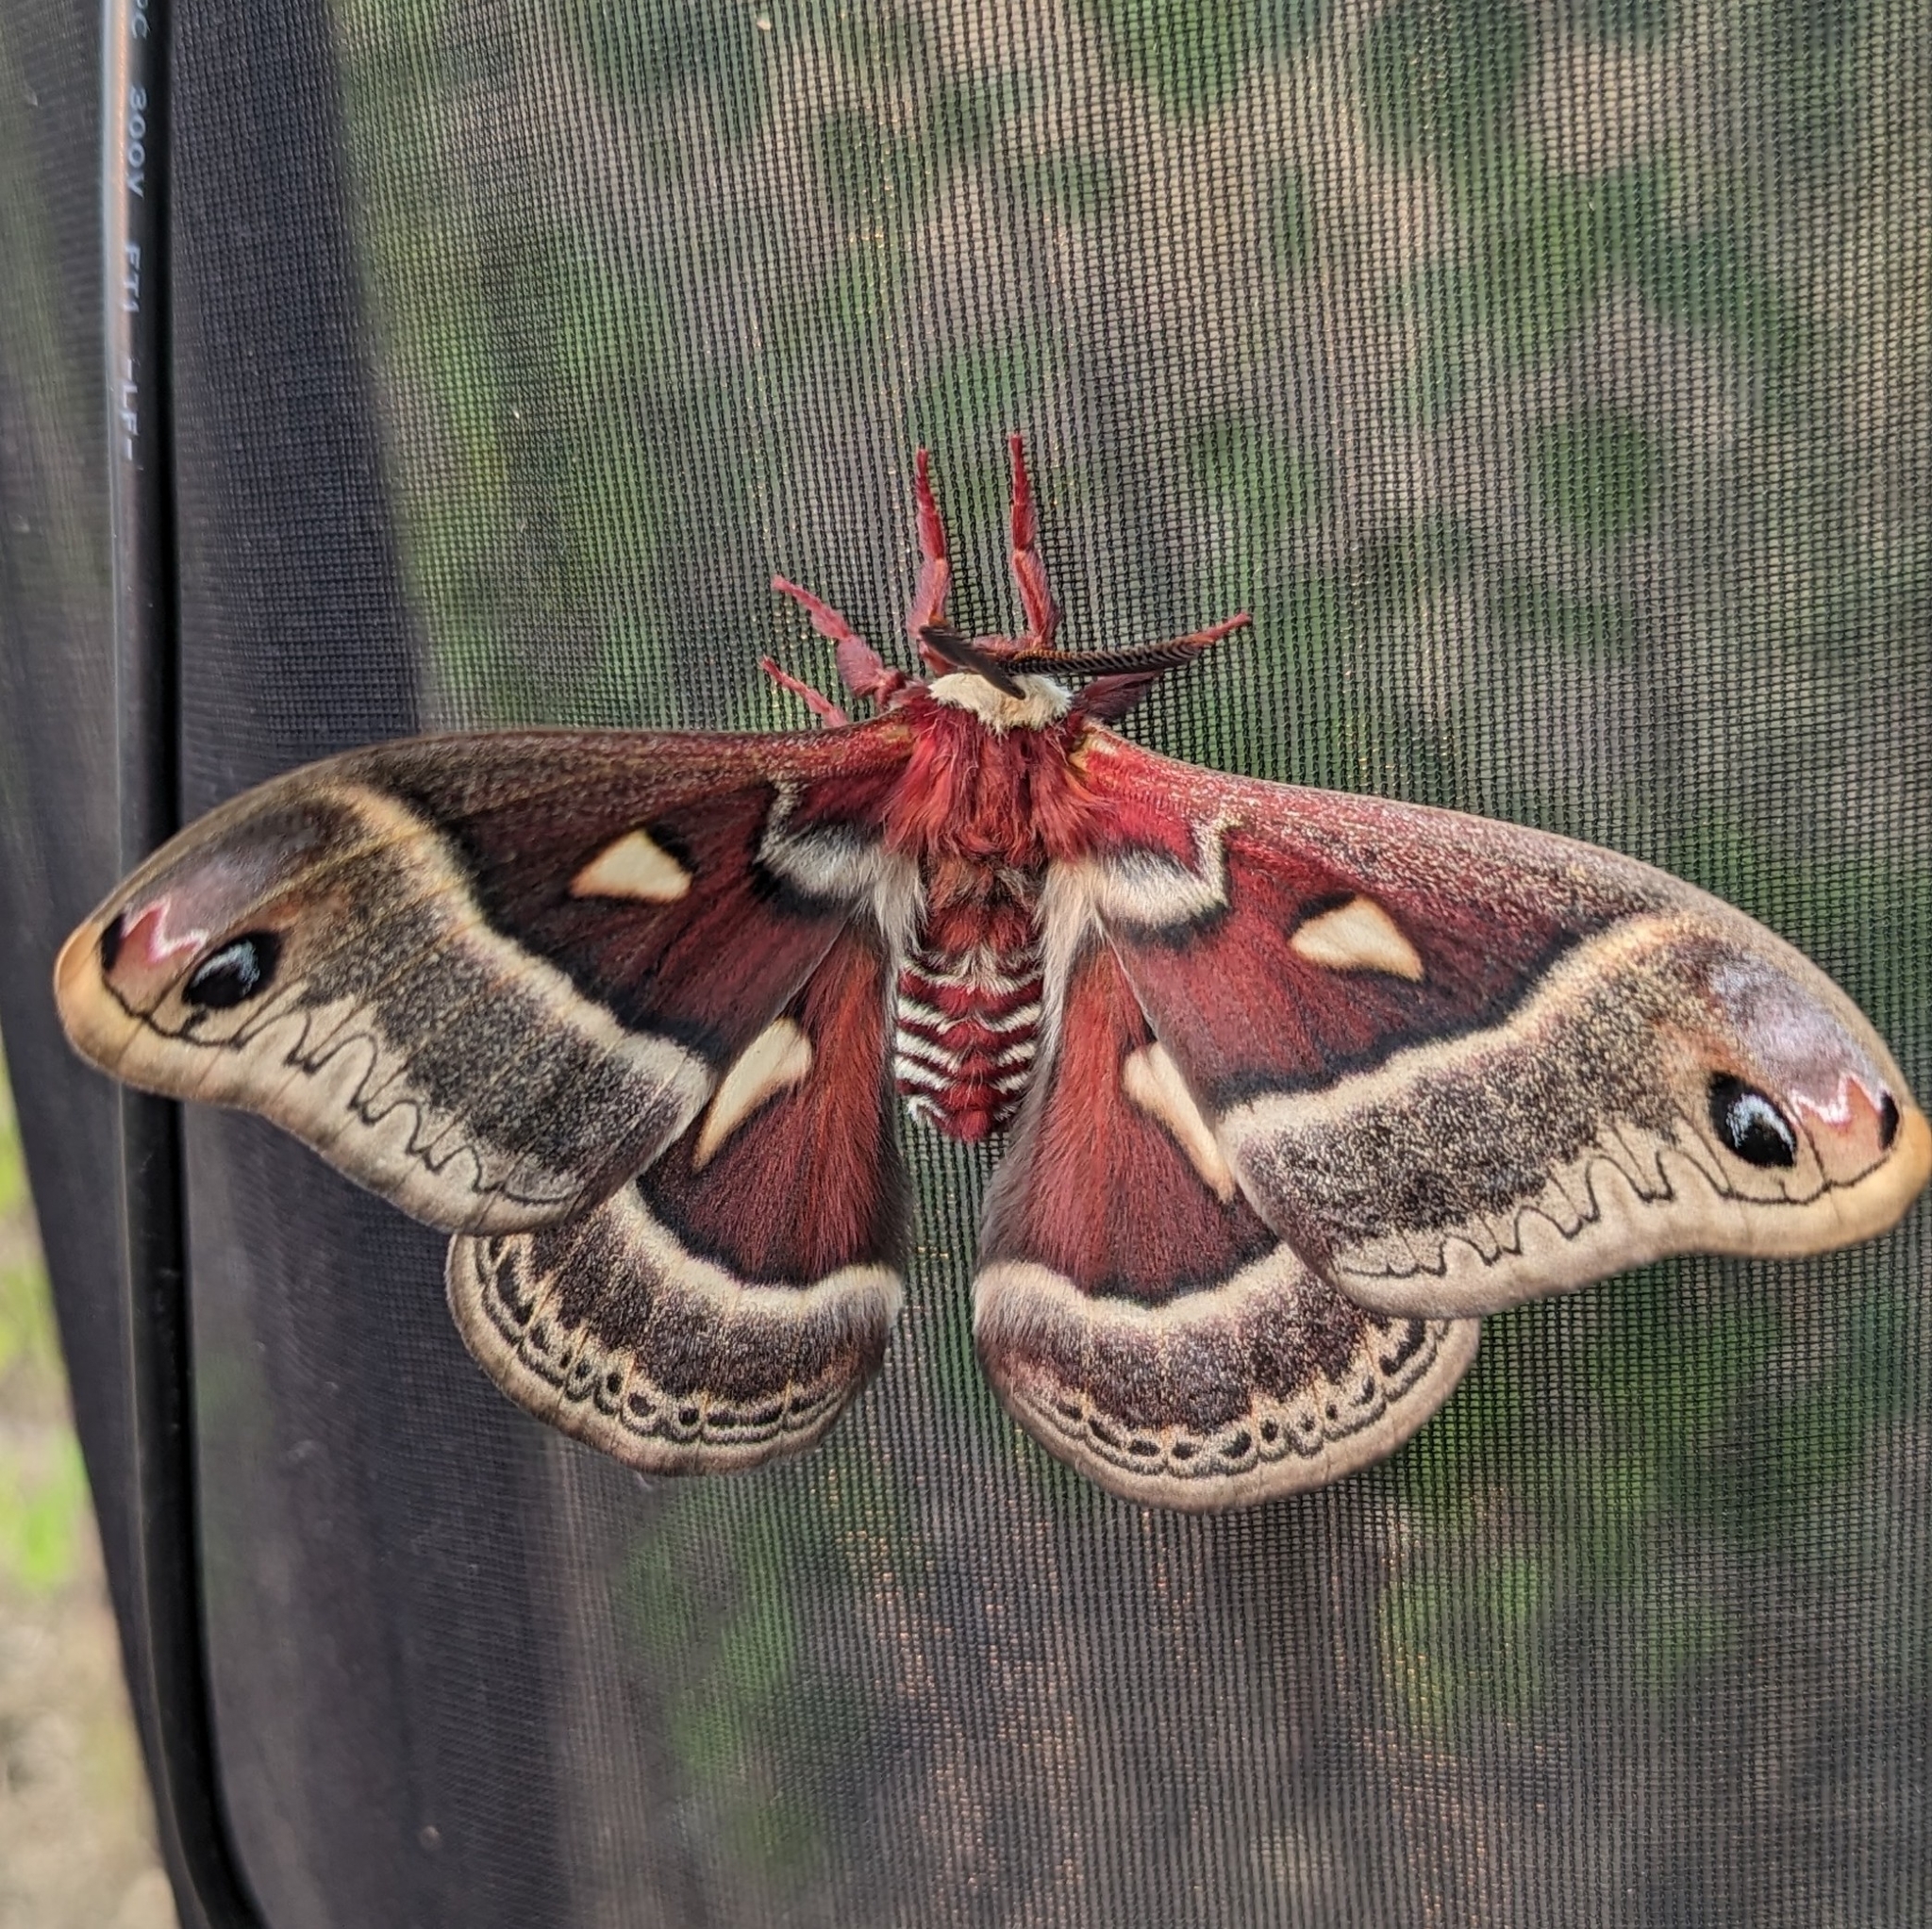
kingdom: Animalia
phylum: Arthropoda
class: Insecta
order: Lepidoptera
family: Saturniidae
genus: Hyalophora
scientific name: Hyalophora gloveri
